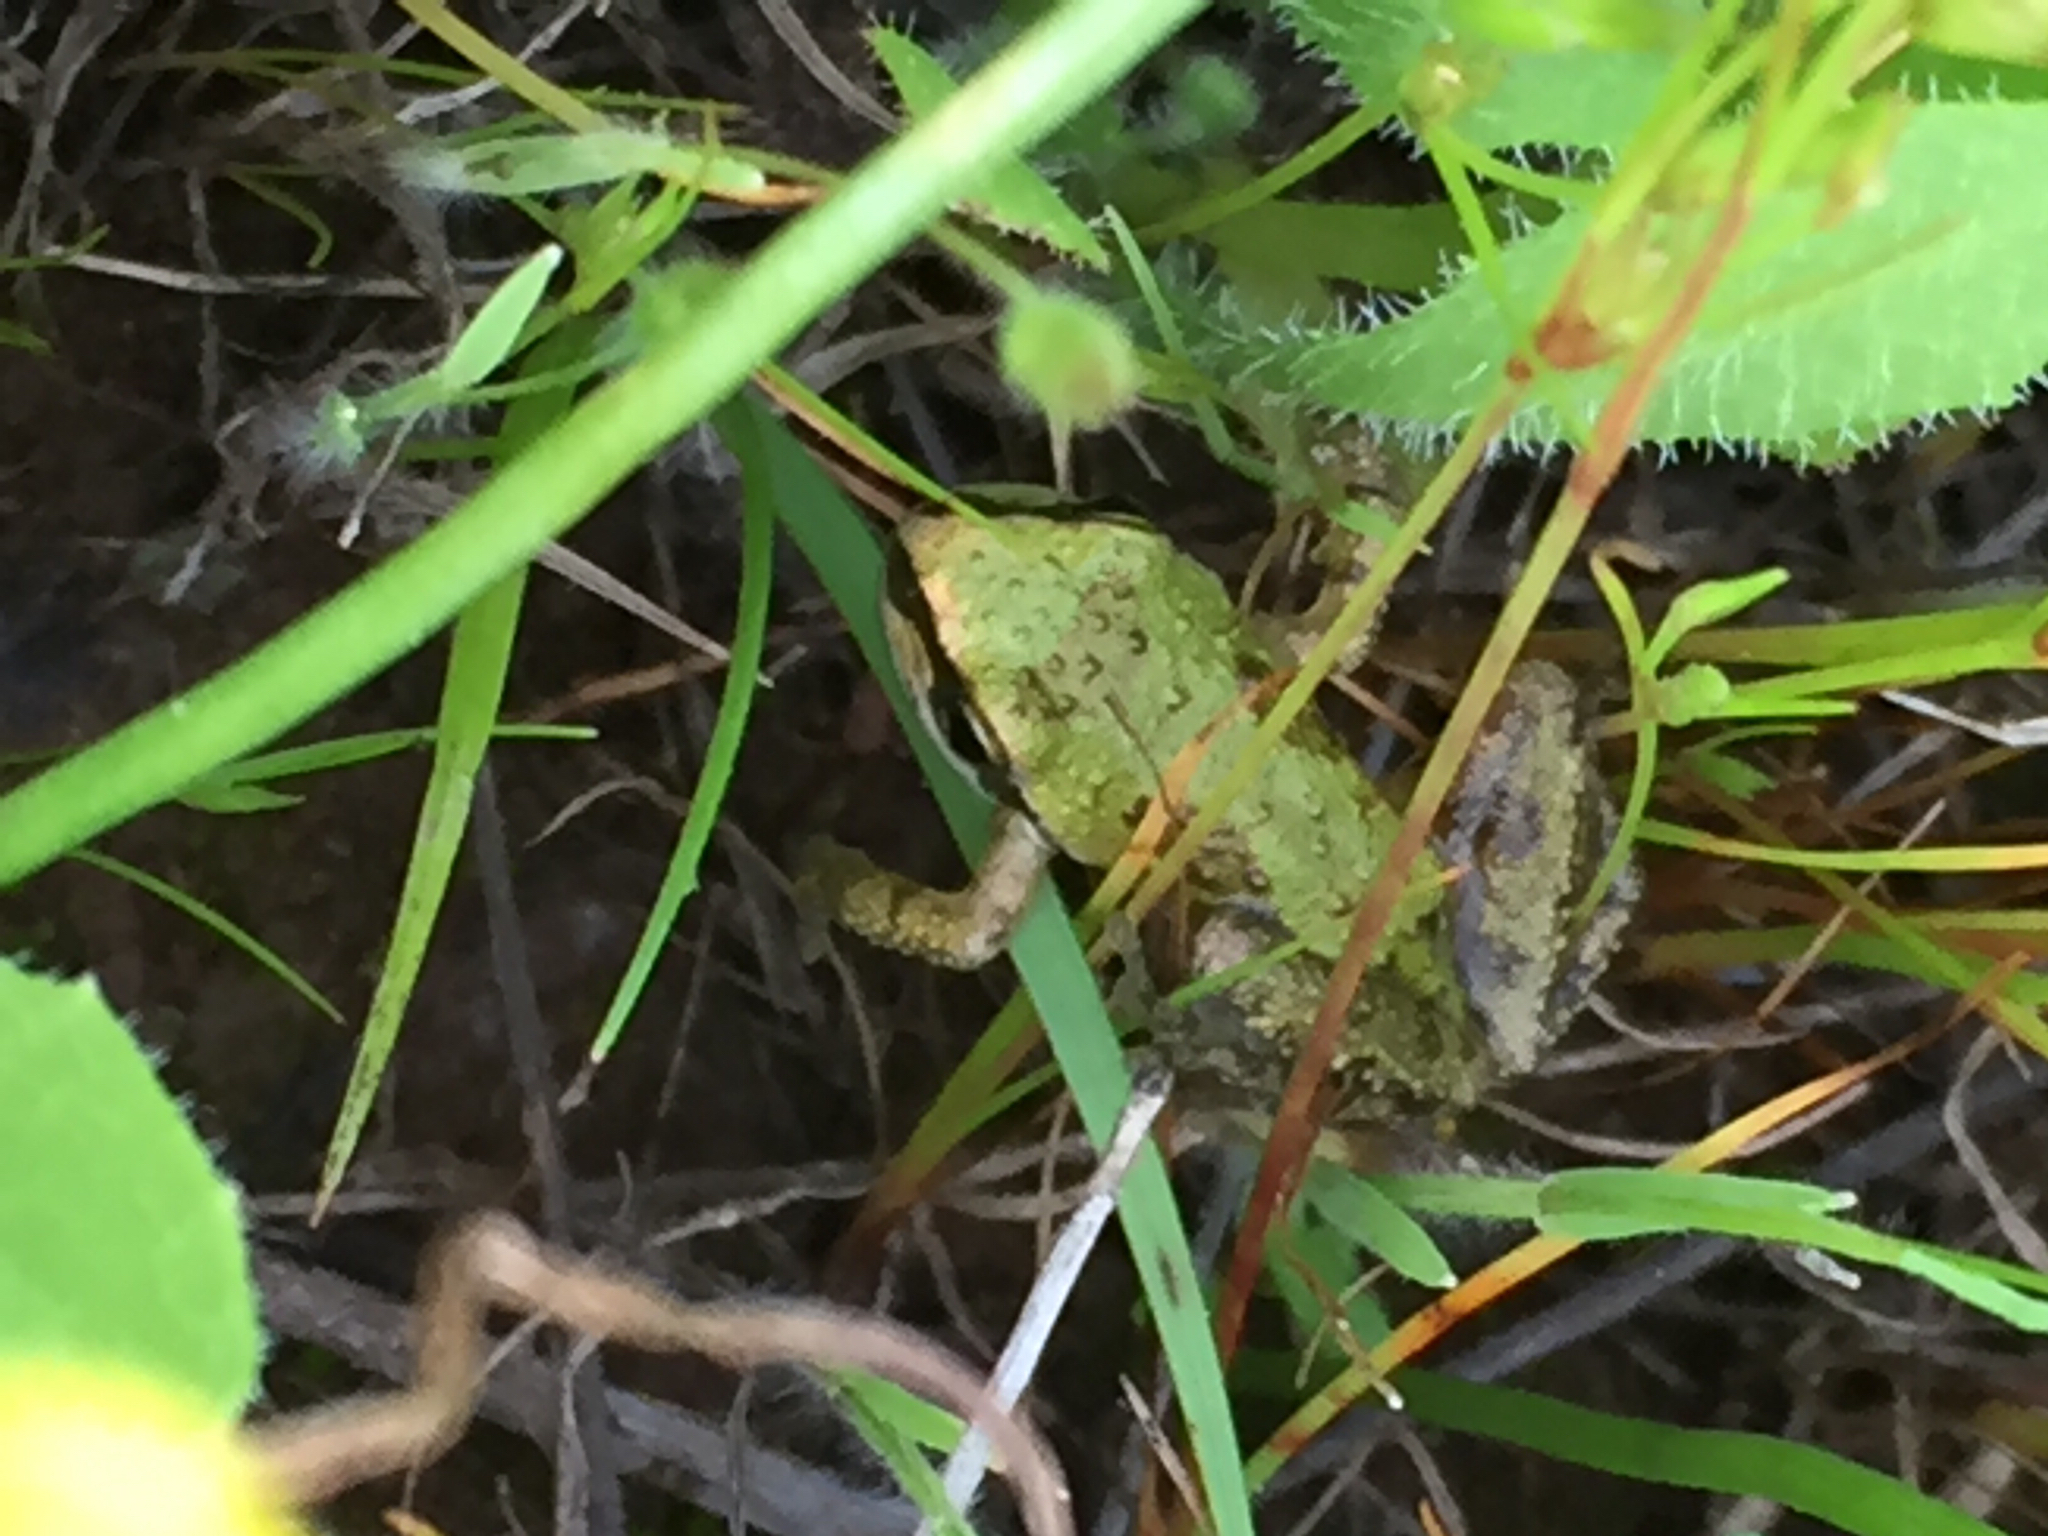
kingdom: Animalia
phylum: Chordata
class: Amphibia
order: Anura
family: Hylidae
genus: Pseudacris
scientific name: Pseudacris regilla
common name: Pacific chorus frog
